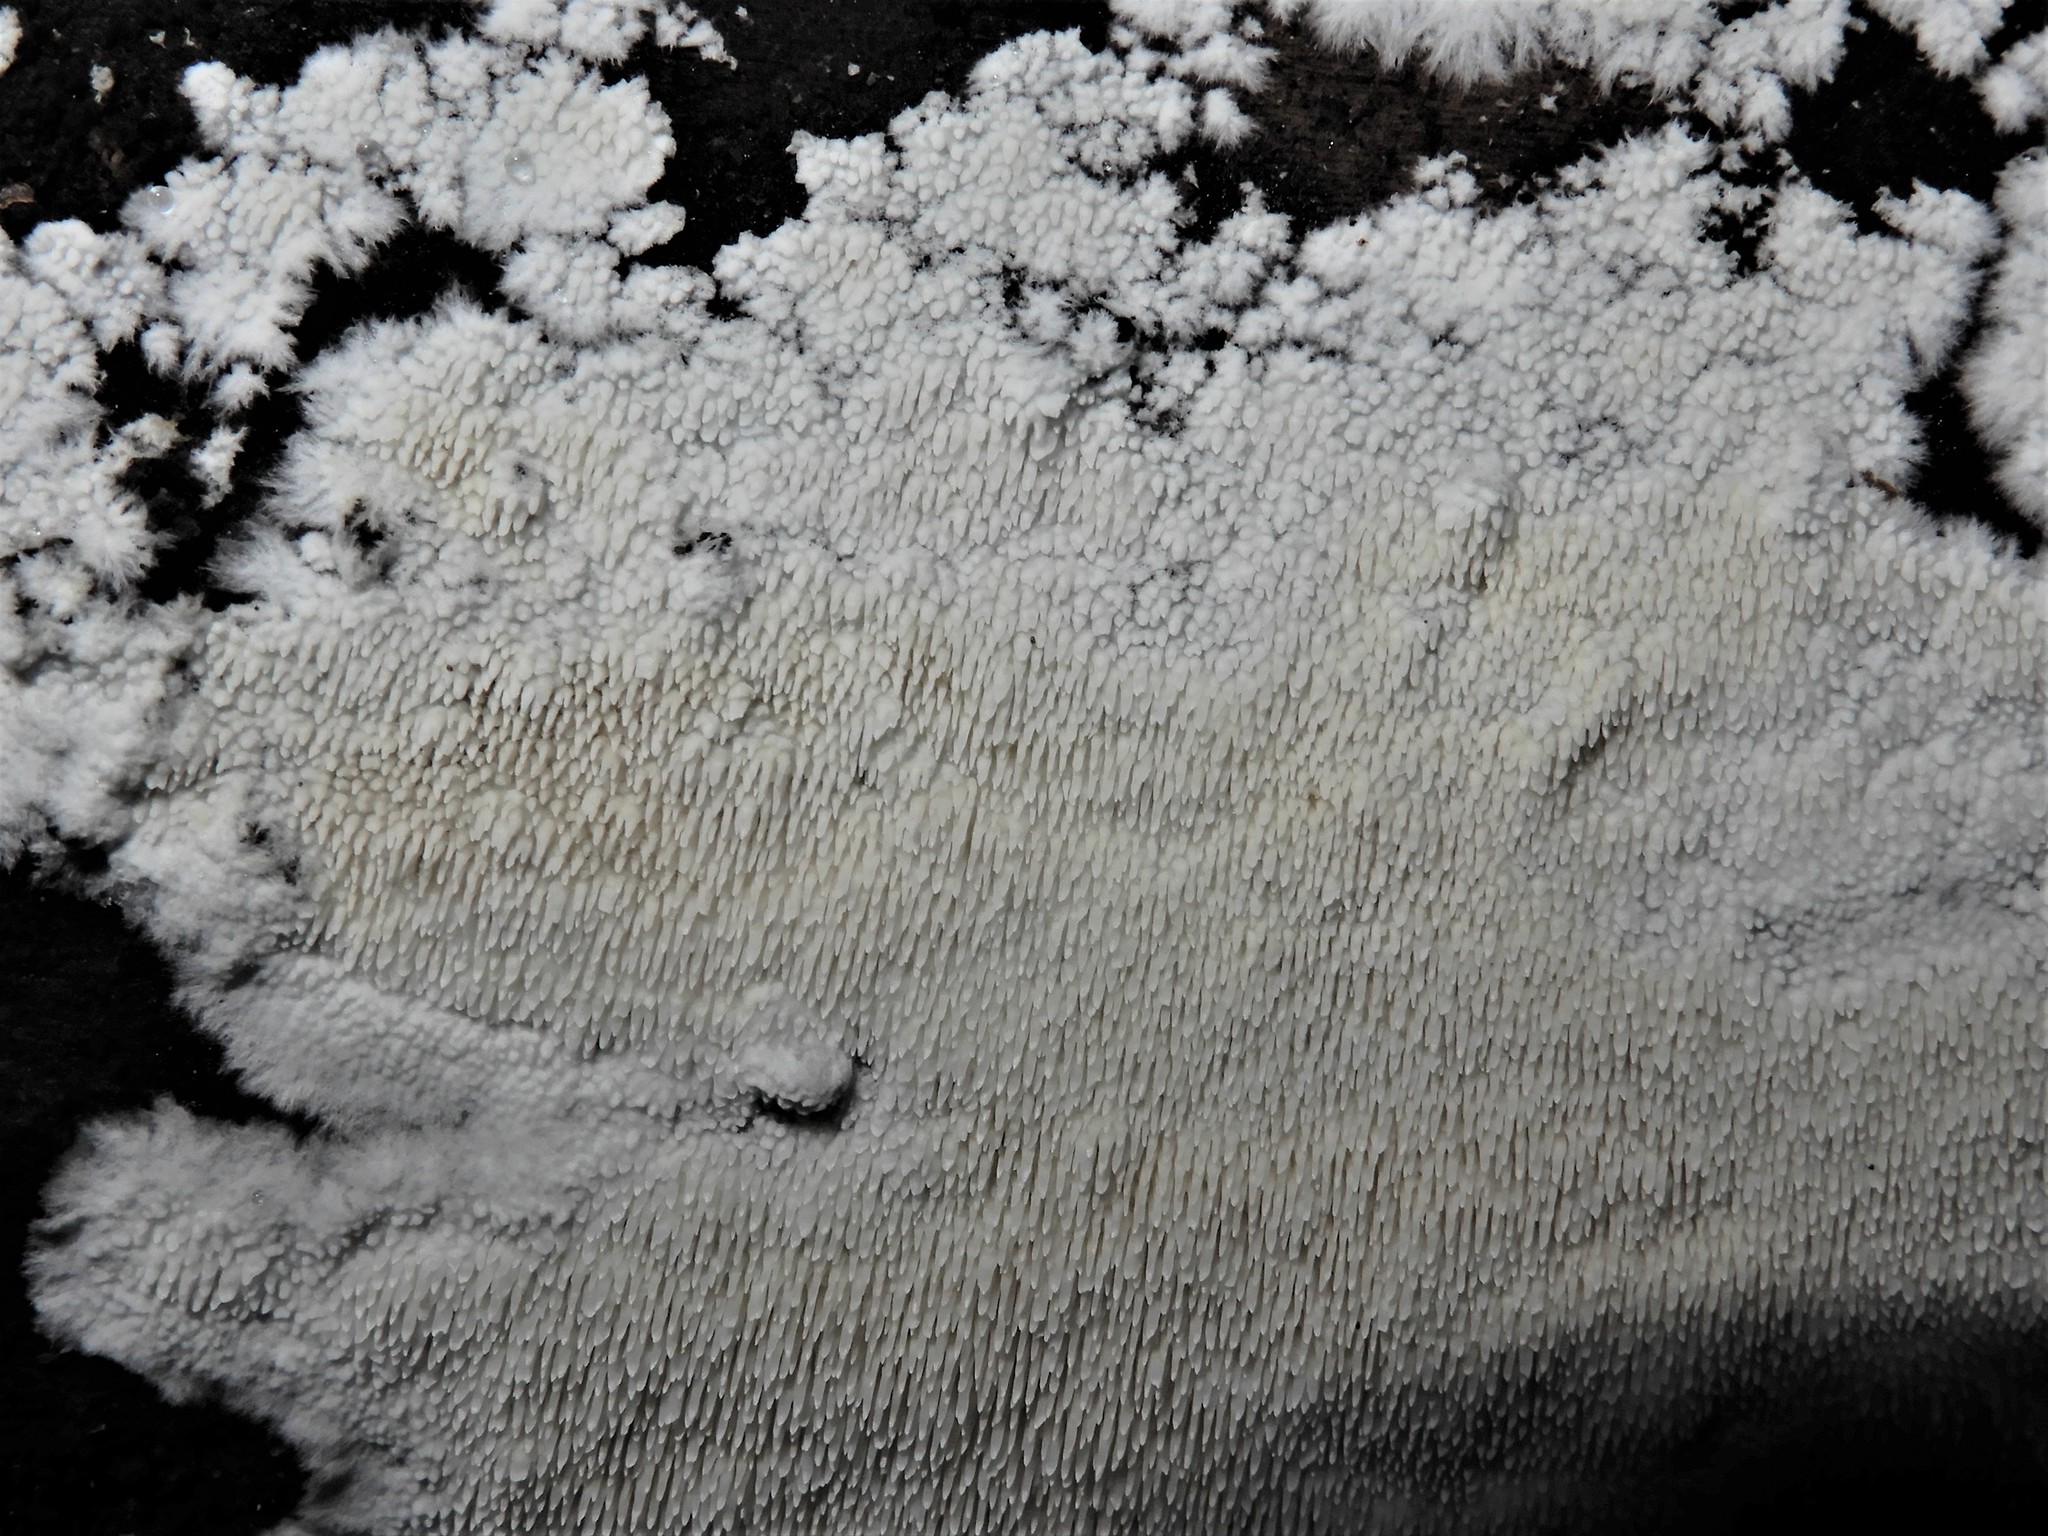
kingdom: Fungi
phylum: Basidiomycota
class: Agaricomycetes
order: Russulales
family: Hericiaceae
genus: Dentipellicula
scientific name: Dentipellicula leptodon
